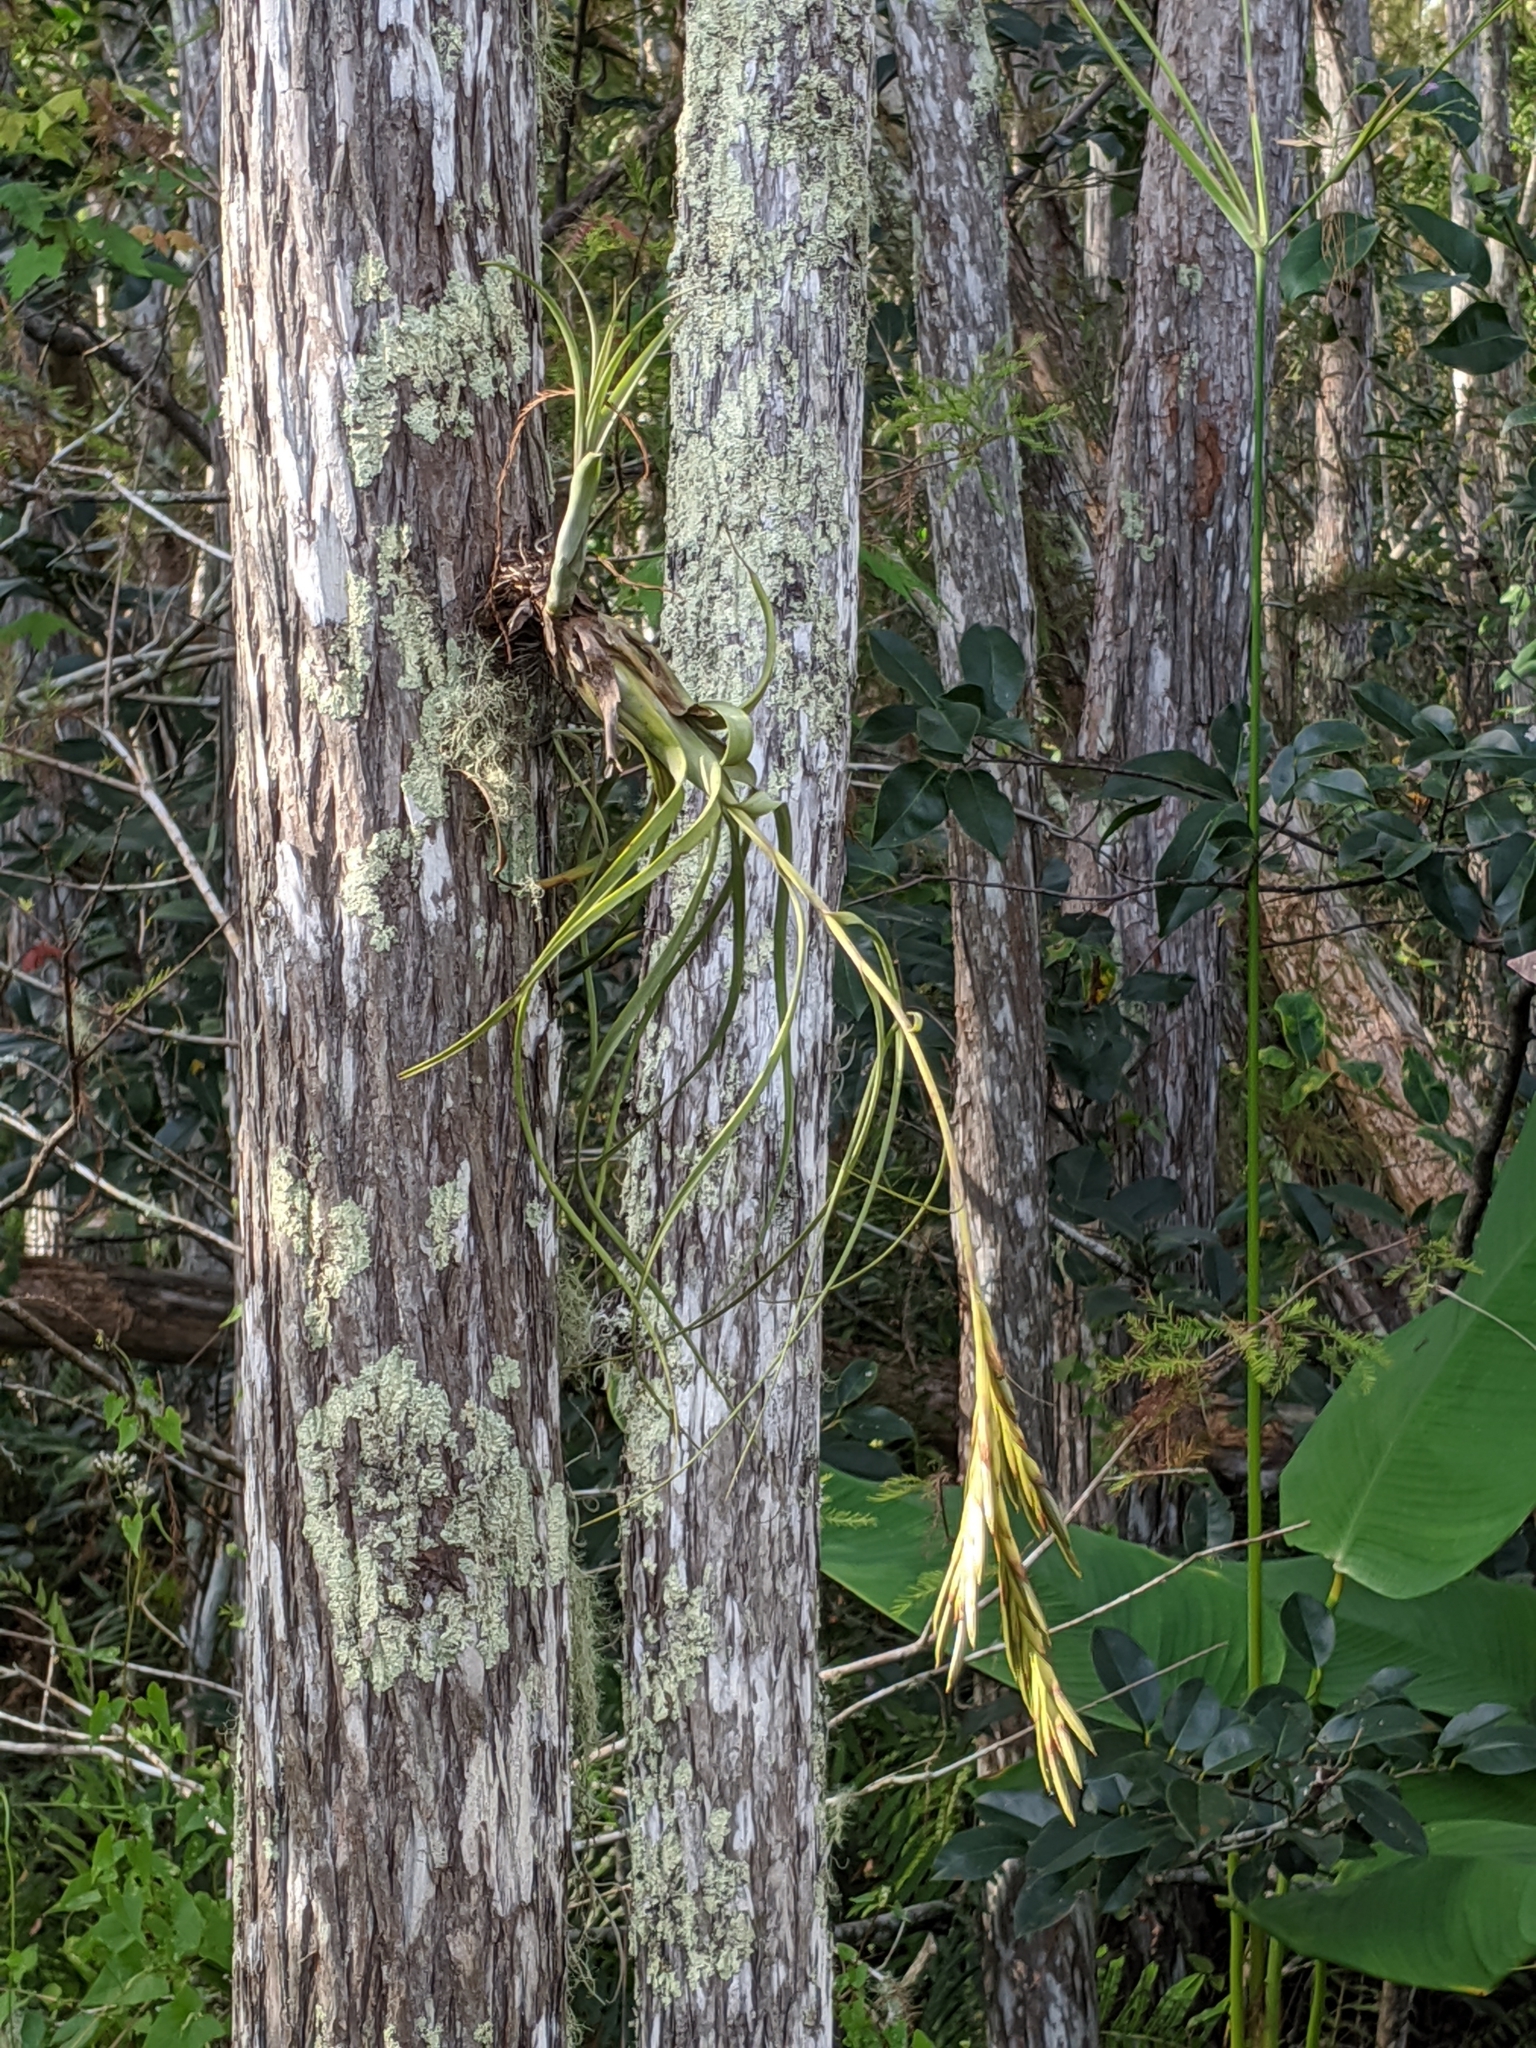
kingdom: Plantae
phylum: Tracheophyta
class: Liliopsida
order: Poales
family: Bromeliaceae
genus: Tillandsia
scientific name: Tillandsia balbisiana
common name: Northern needleleaf
